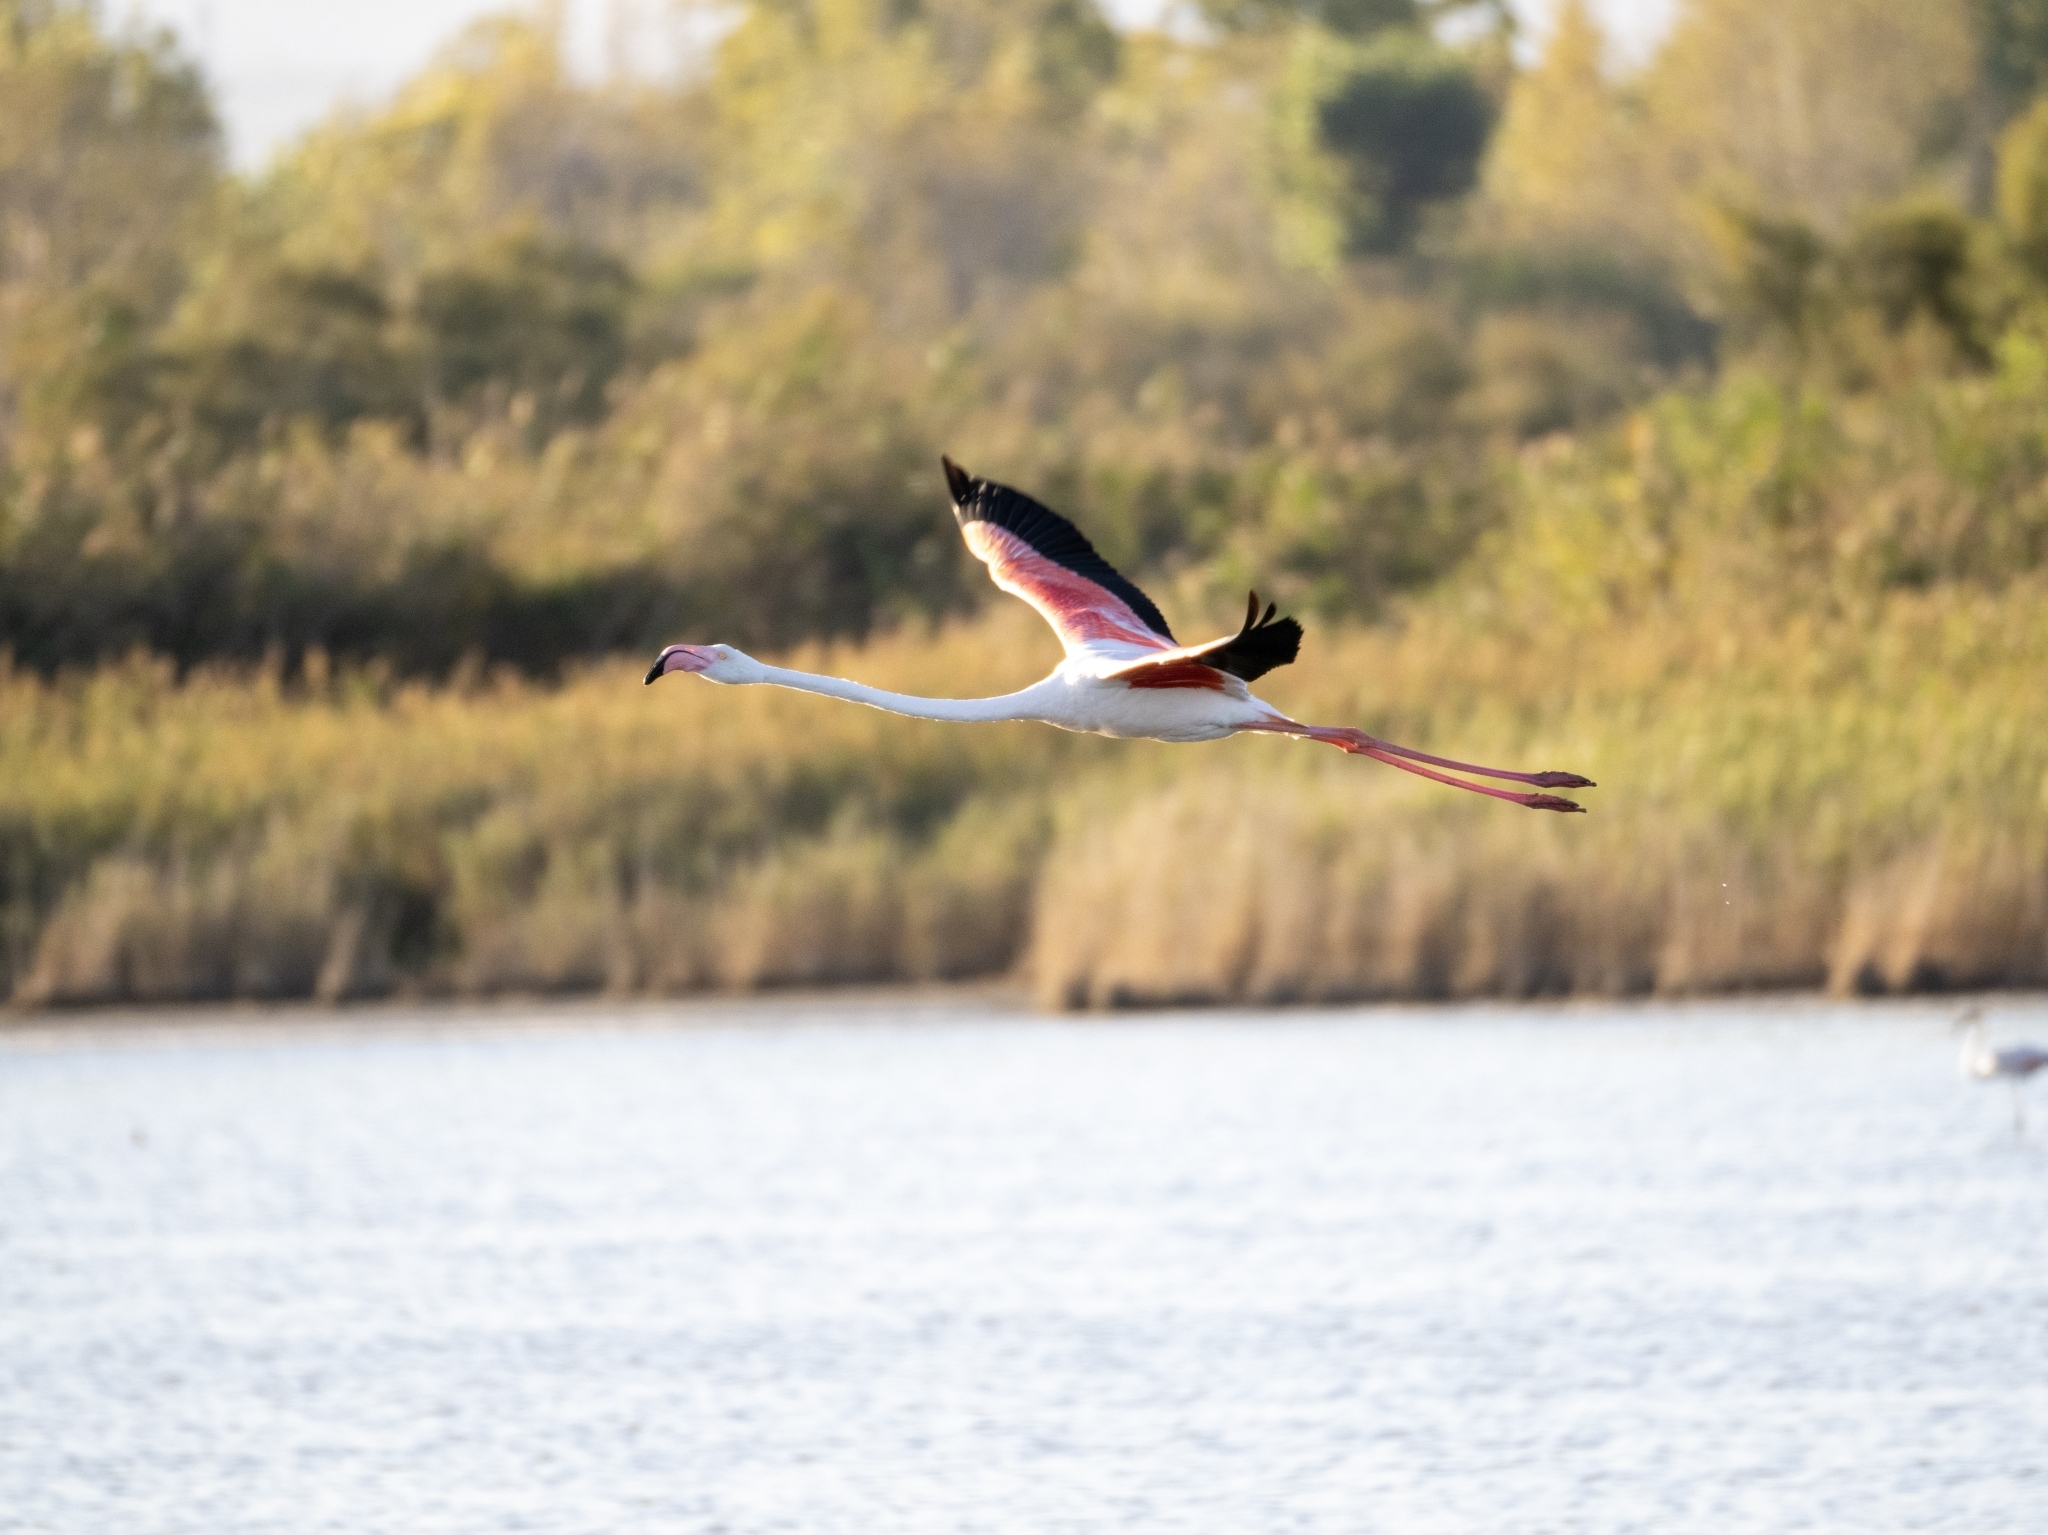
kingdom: Animalia
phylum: Chordata
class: Aves
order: Phoenicopteriformes
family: Phoenicopteridae
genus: Phoenicopterus
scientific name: Phoenicopterus roseus
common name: Greater flamingo
